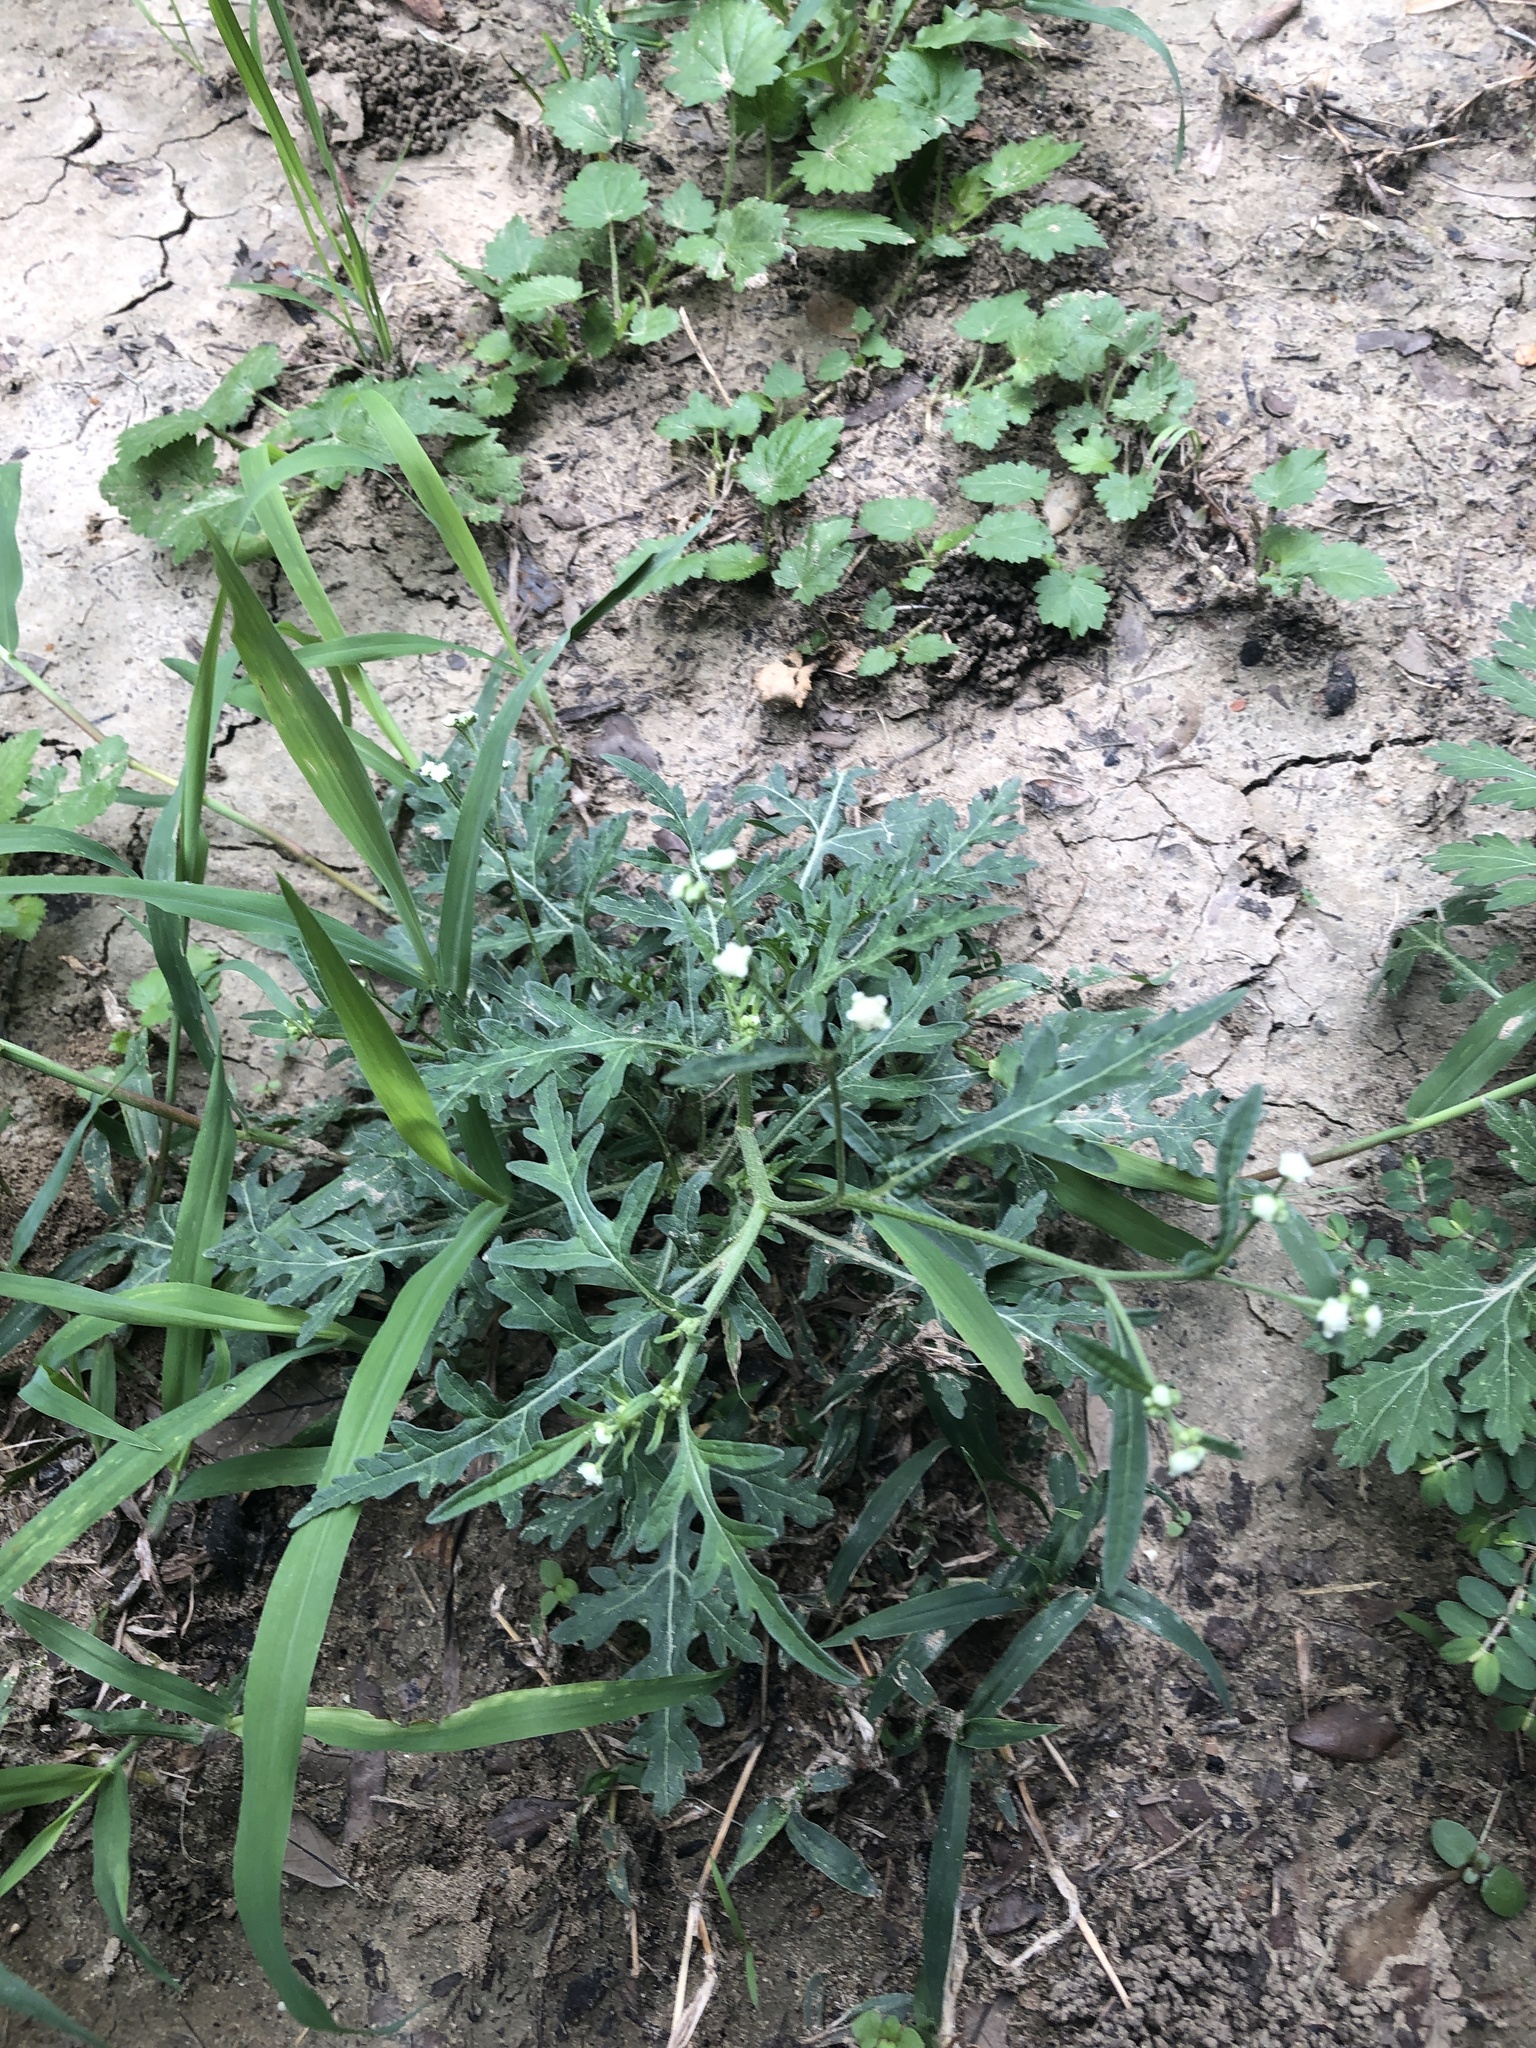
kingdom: Plantae
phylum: Tracheophyta
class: Magnoliopsida
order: Asterales
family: Asteraceae
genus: Parthenium
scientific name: Parthenium hysterophorus
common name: Santa maria feverfew
